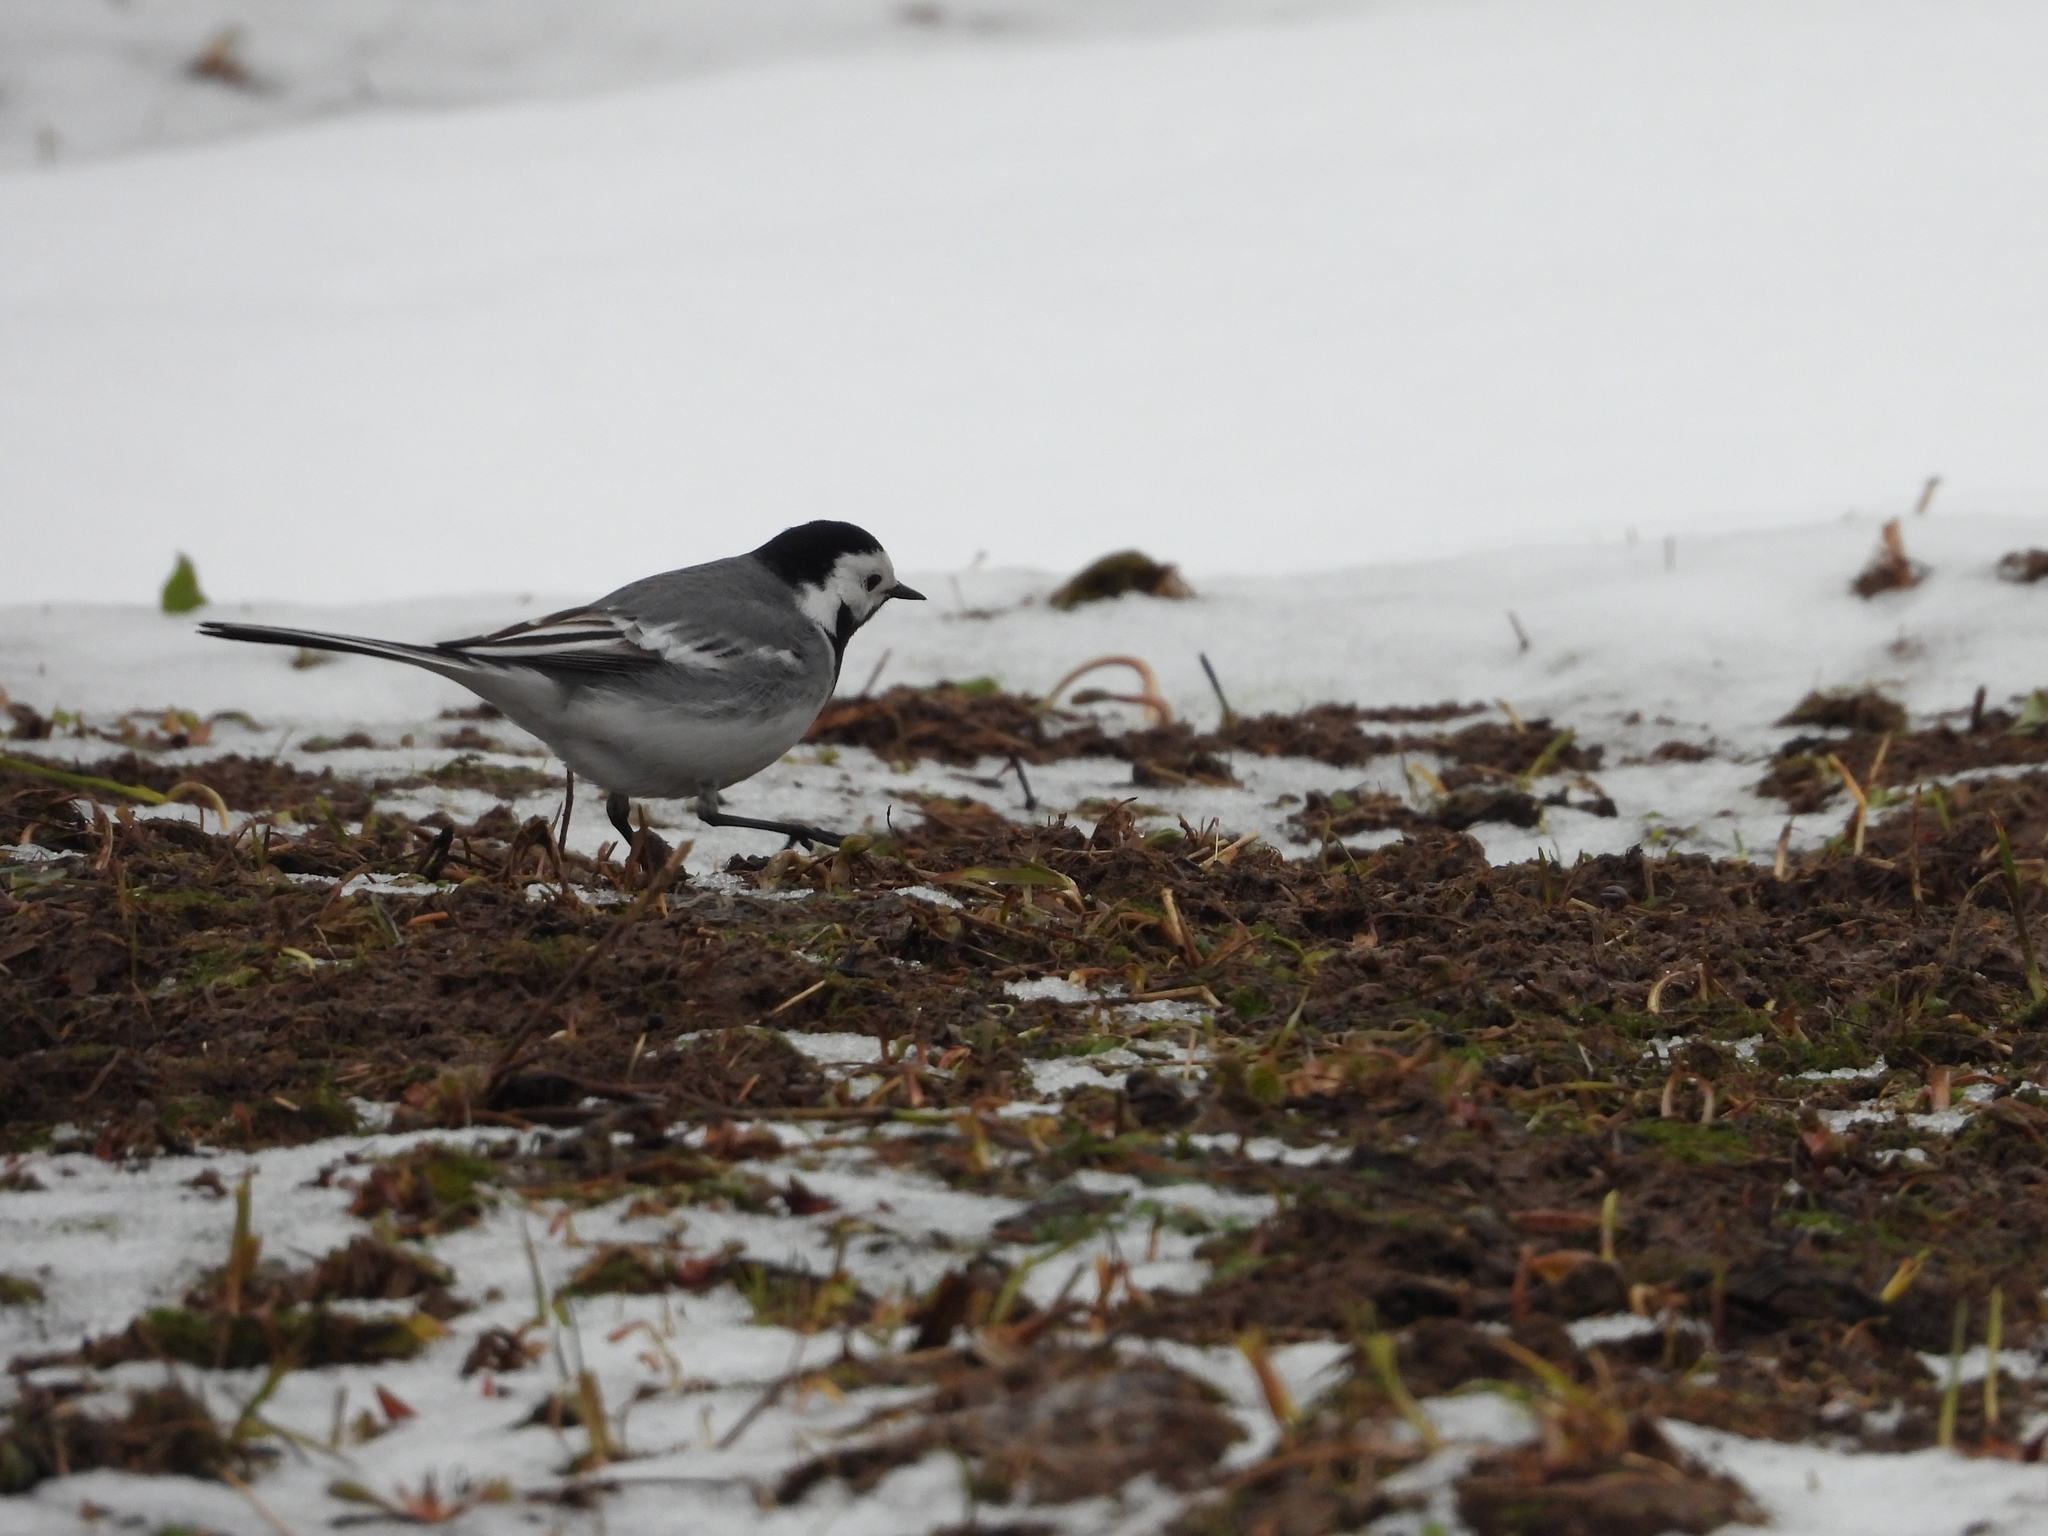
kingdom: Animalia
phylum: Chordata
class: Aves
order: Passeriformes
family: Motacillidae
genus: Motacilla
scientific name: Motacilla alba
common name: White wagtail
